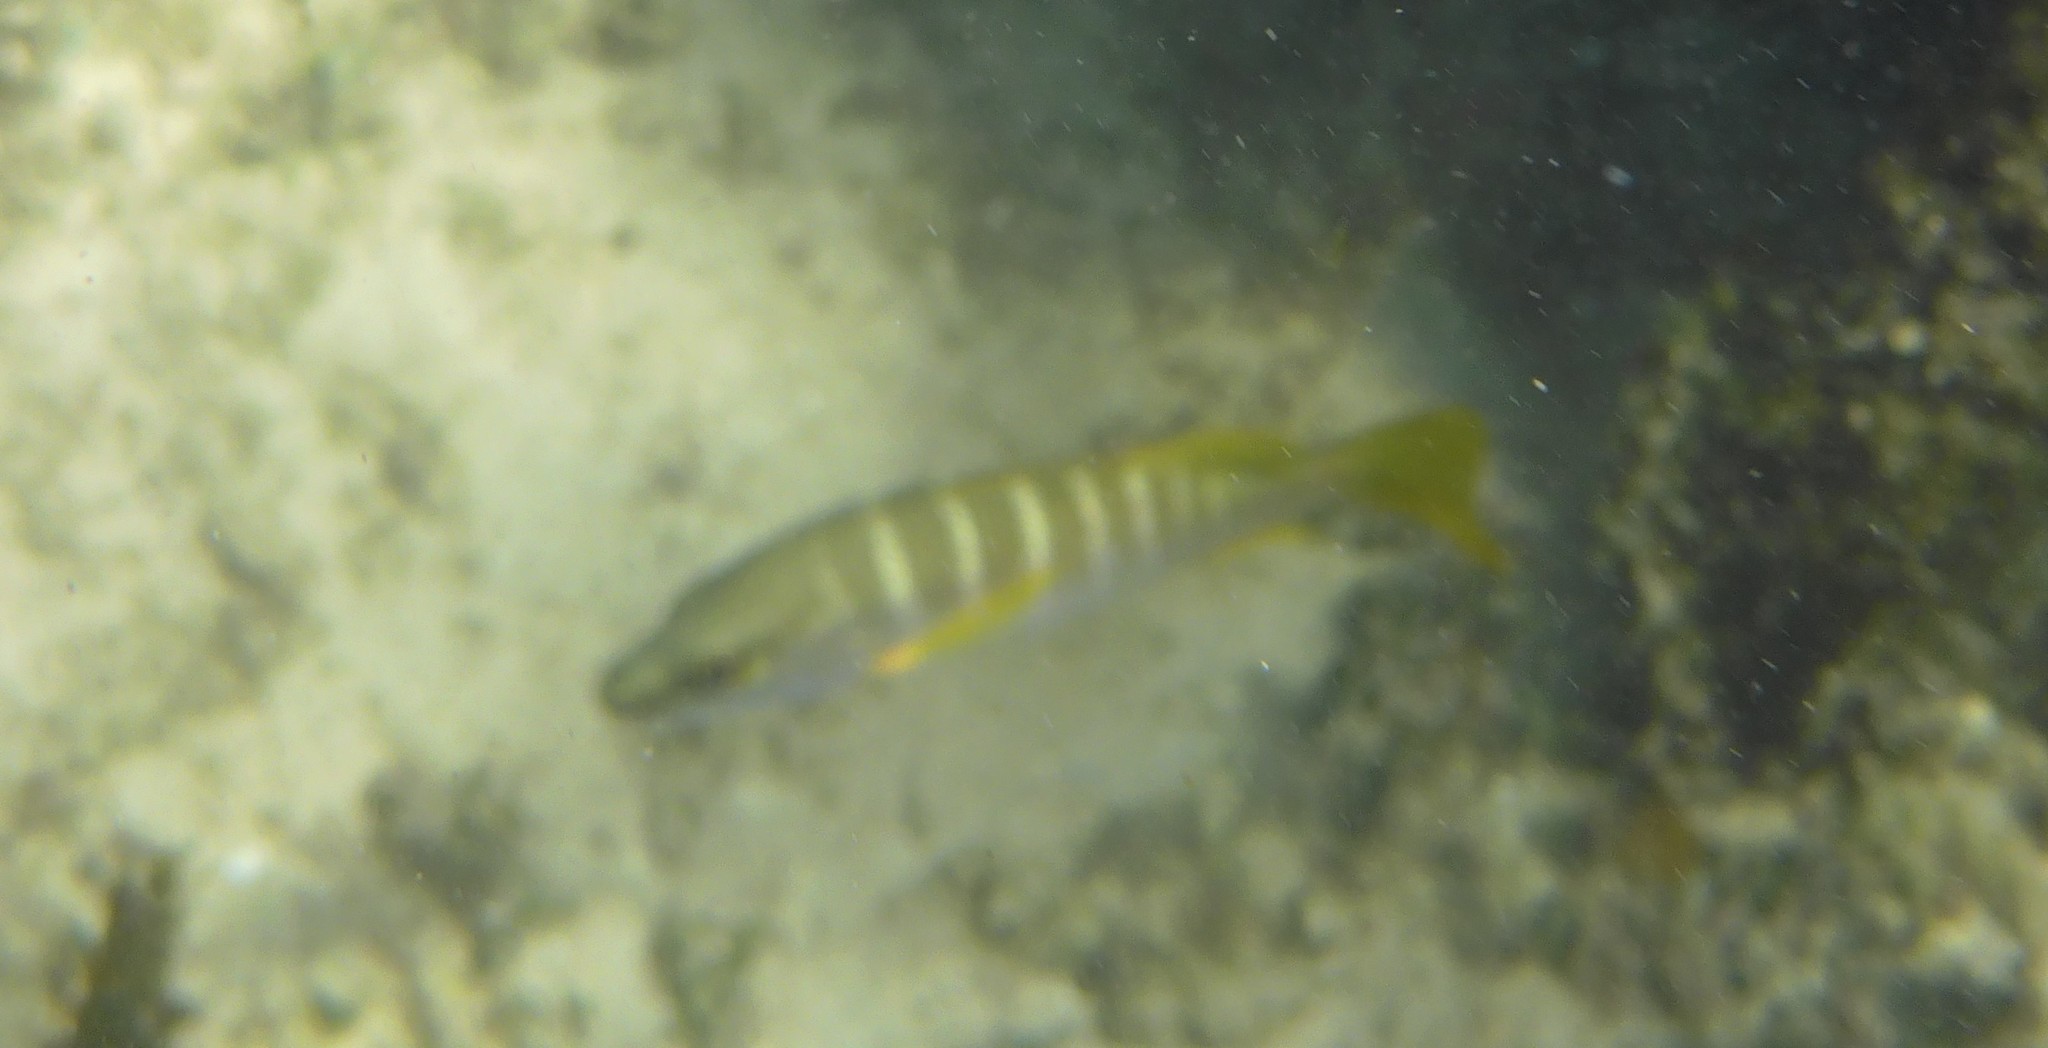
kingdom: Animalia
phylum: Chordata
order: Perciformes
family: Lutjanidae
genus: Lutjanus
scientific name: Lutjanus apodus
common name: Schoolmaster
